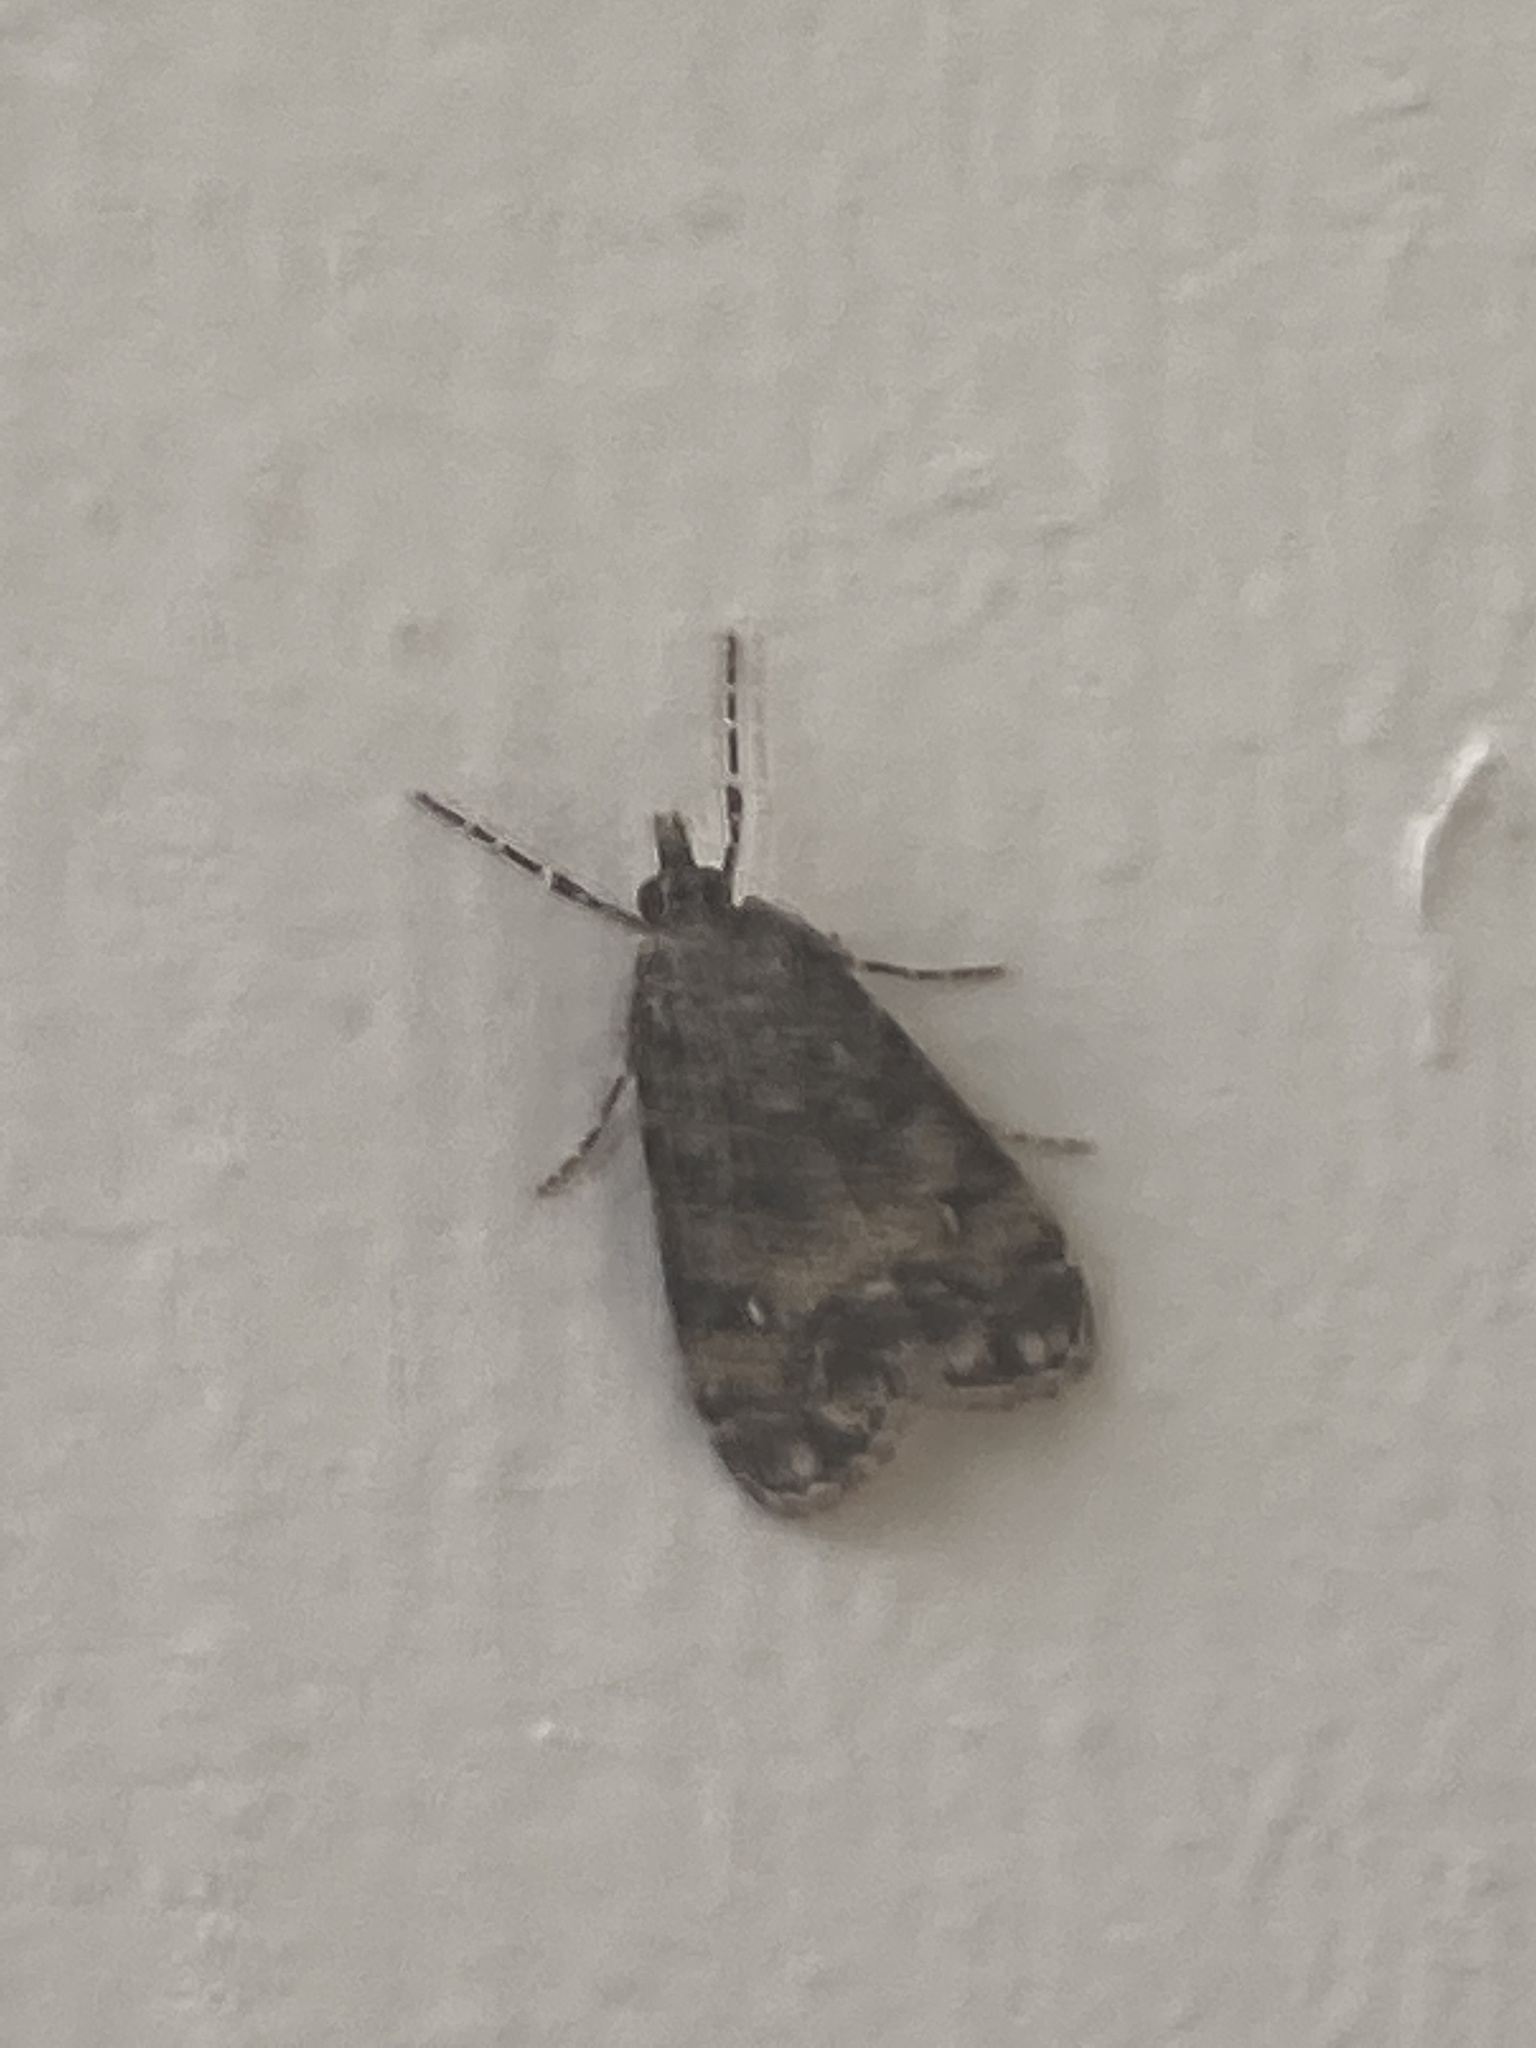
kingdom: Animalia
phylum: Arthropoda
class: Insecta
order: Lepidoptera
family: Crambidae
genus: Eudonia
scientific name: Eudonia lacustrata
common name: Little grey
